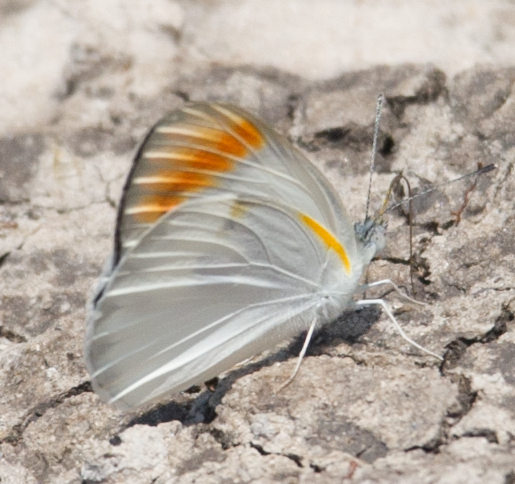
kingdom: Animalia
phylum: Arthropoda
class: Insecta
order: Lepidoptera
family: Pieridae
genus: Colotis
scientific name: Colotis evenina
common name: Common orange tip
